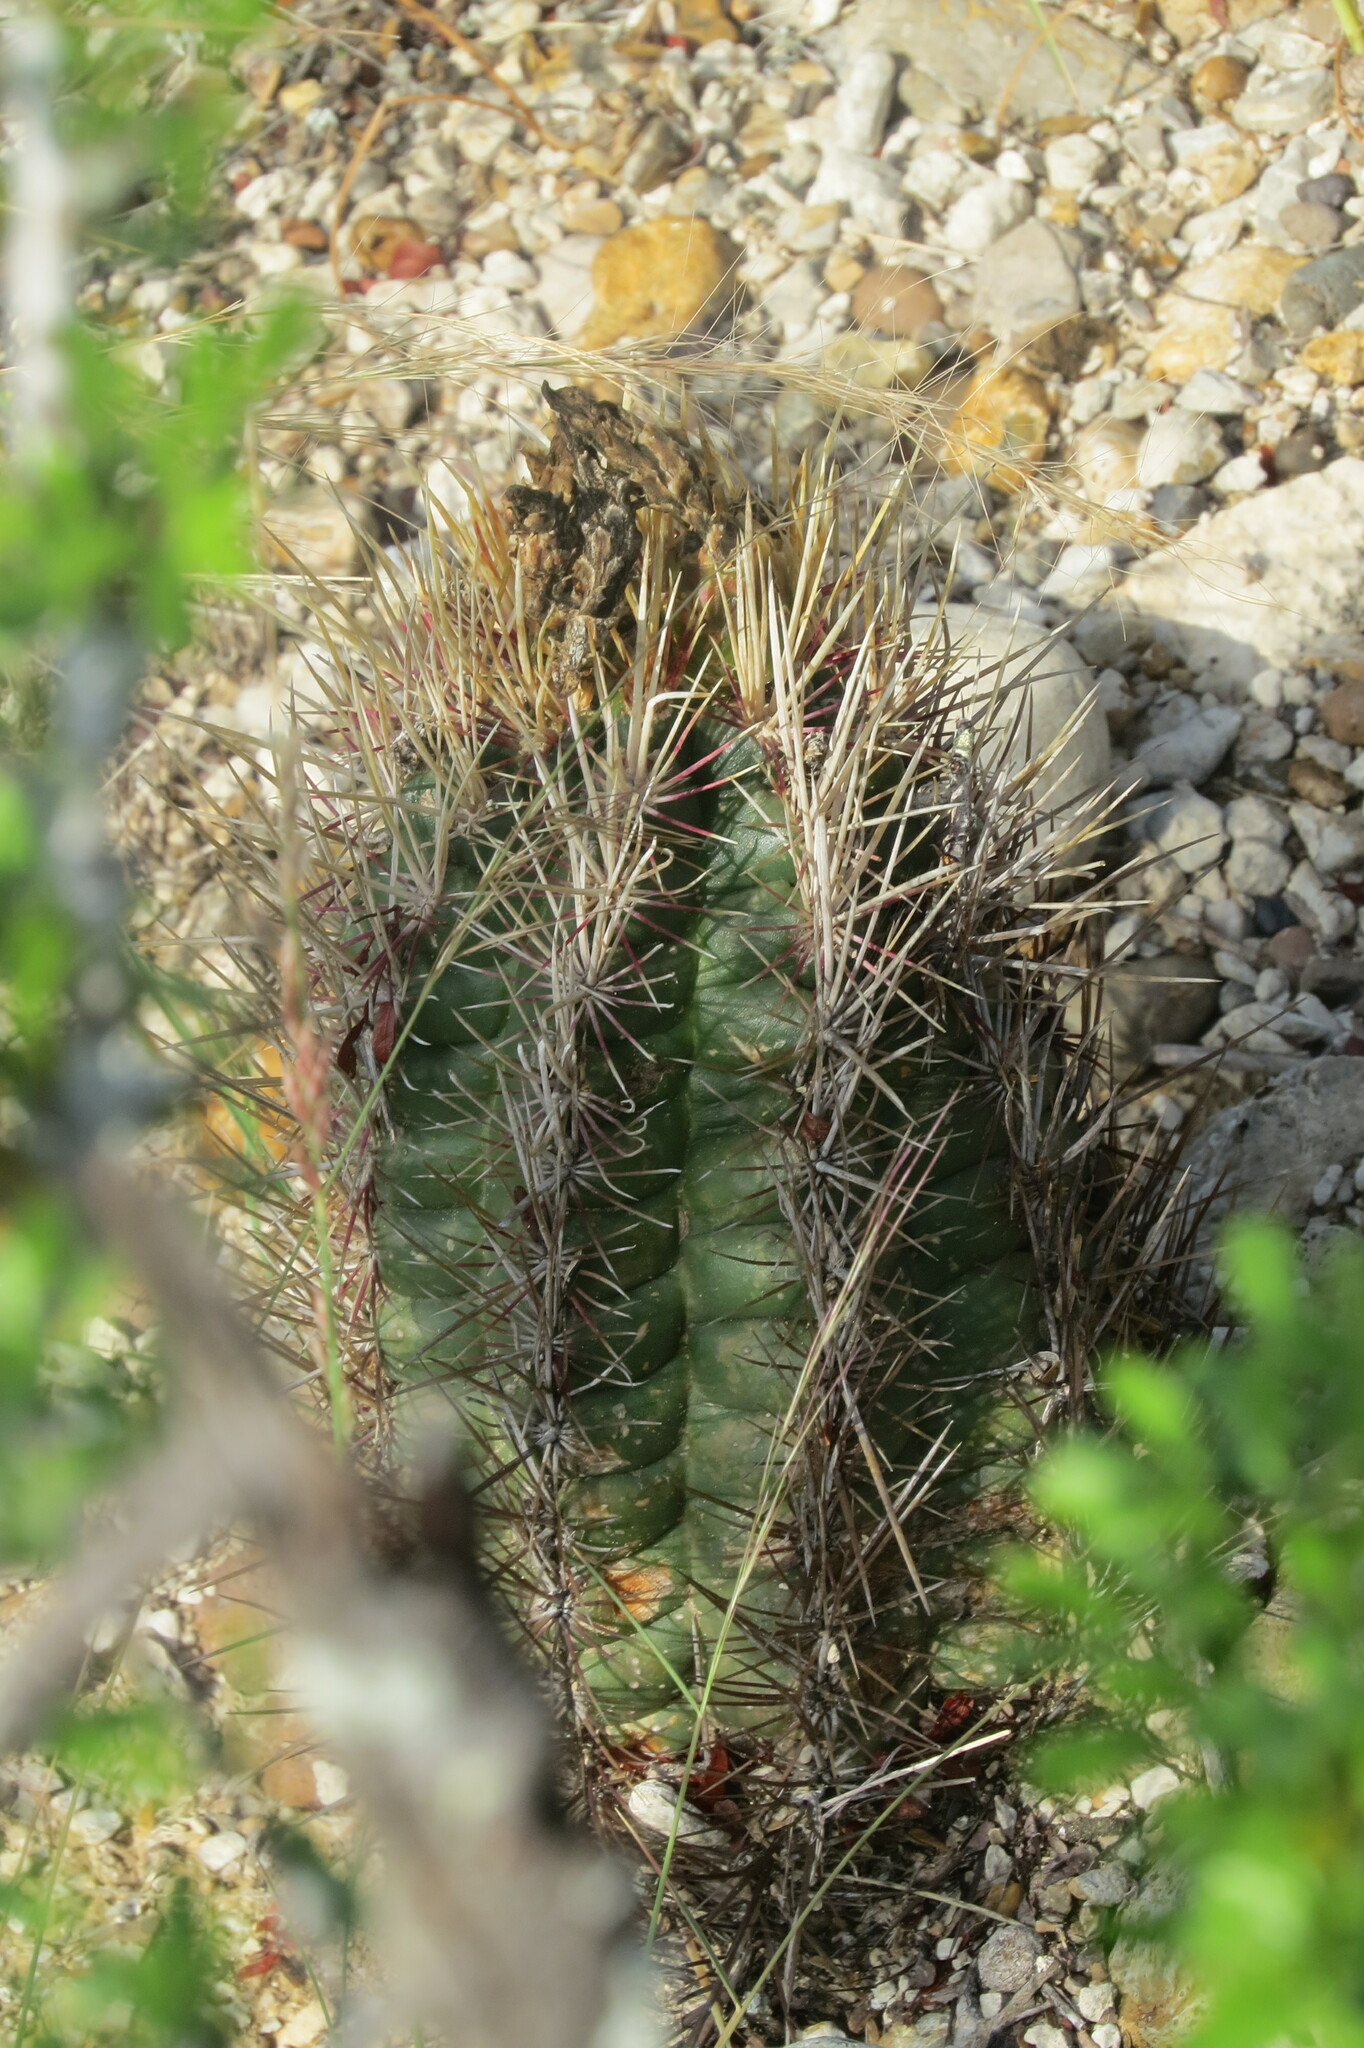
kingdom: Plantae
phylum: Tracheophyta
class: Magnoliopsida
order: Caryophyllales
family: Cactaceae
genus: Thelocactus
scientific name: Thelocactus bicolor
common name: Glory of texas
